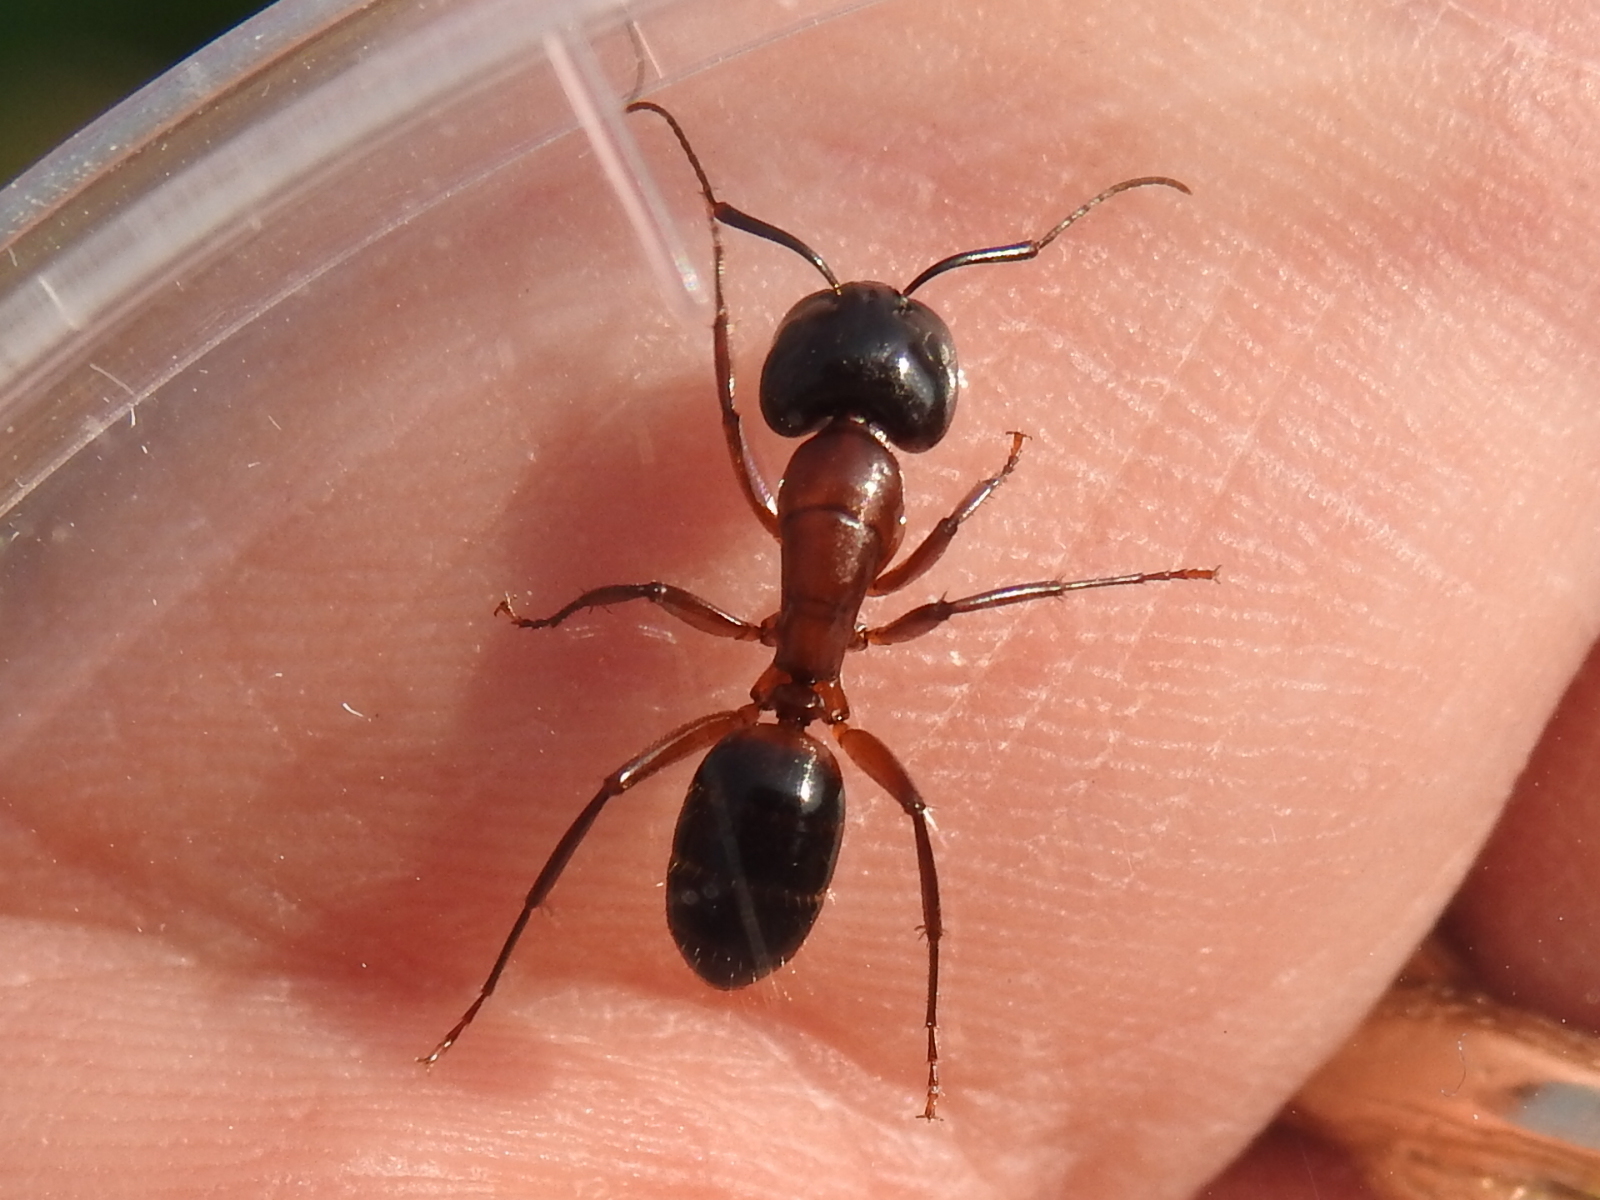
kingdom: Animalia
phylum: Arthropoda
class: Insecta
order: Hymenoptera
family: Formicidae
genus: Camponotus
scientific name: Camponotus texanus
